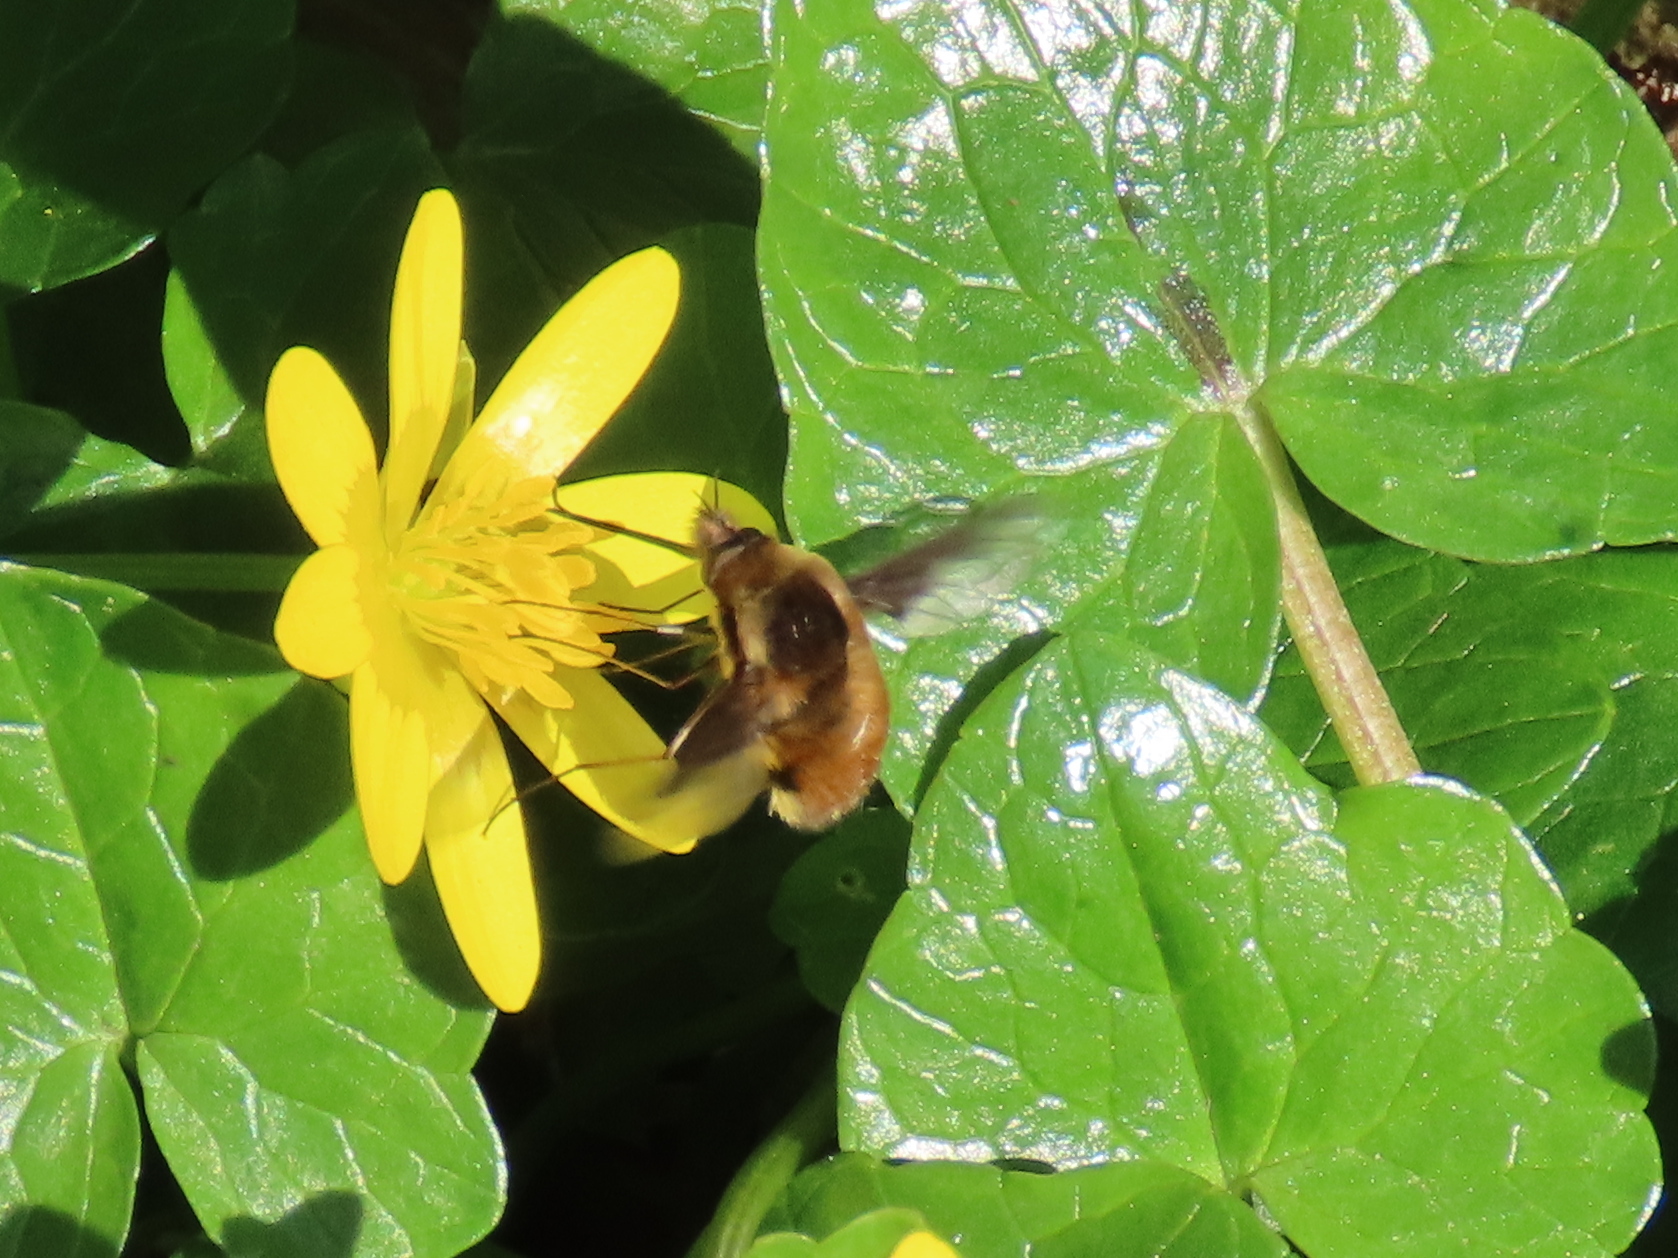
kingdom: Animalia
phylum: Arthropoda
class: Insecta
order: Diptera
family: Bombyliidae
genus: Bombylius
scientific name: Bombylius major
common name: Bee fly
